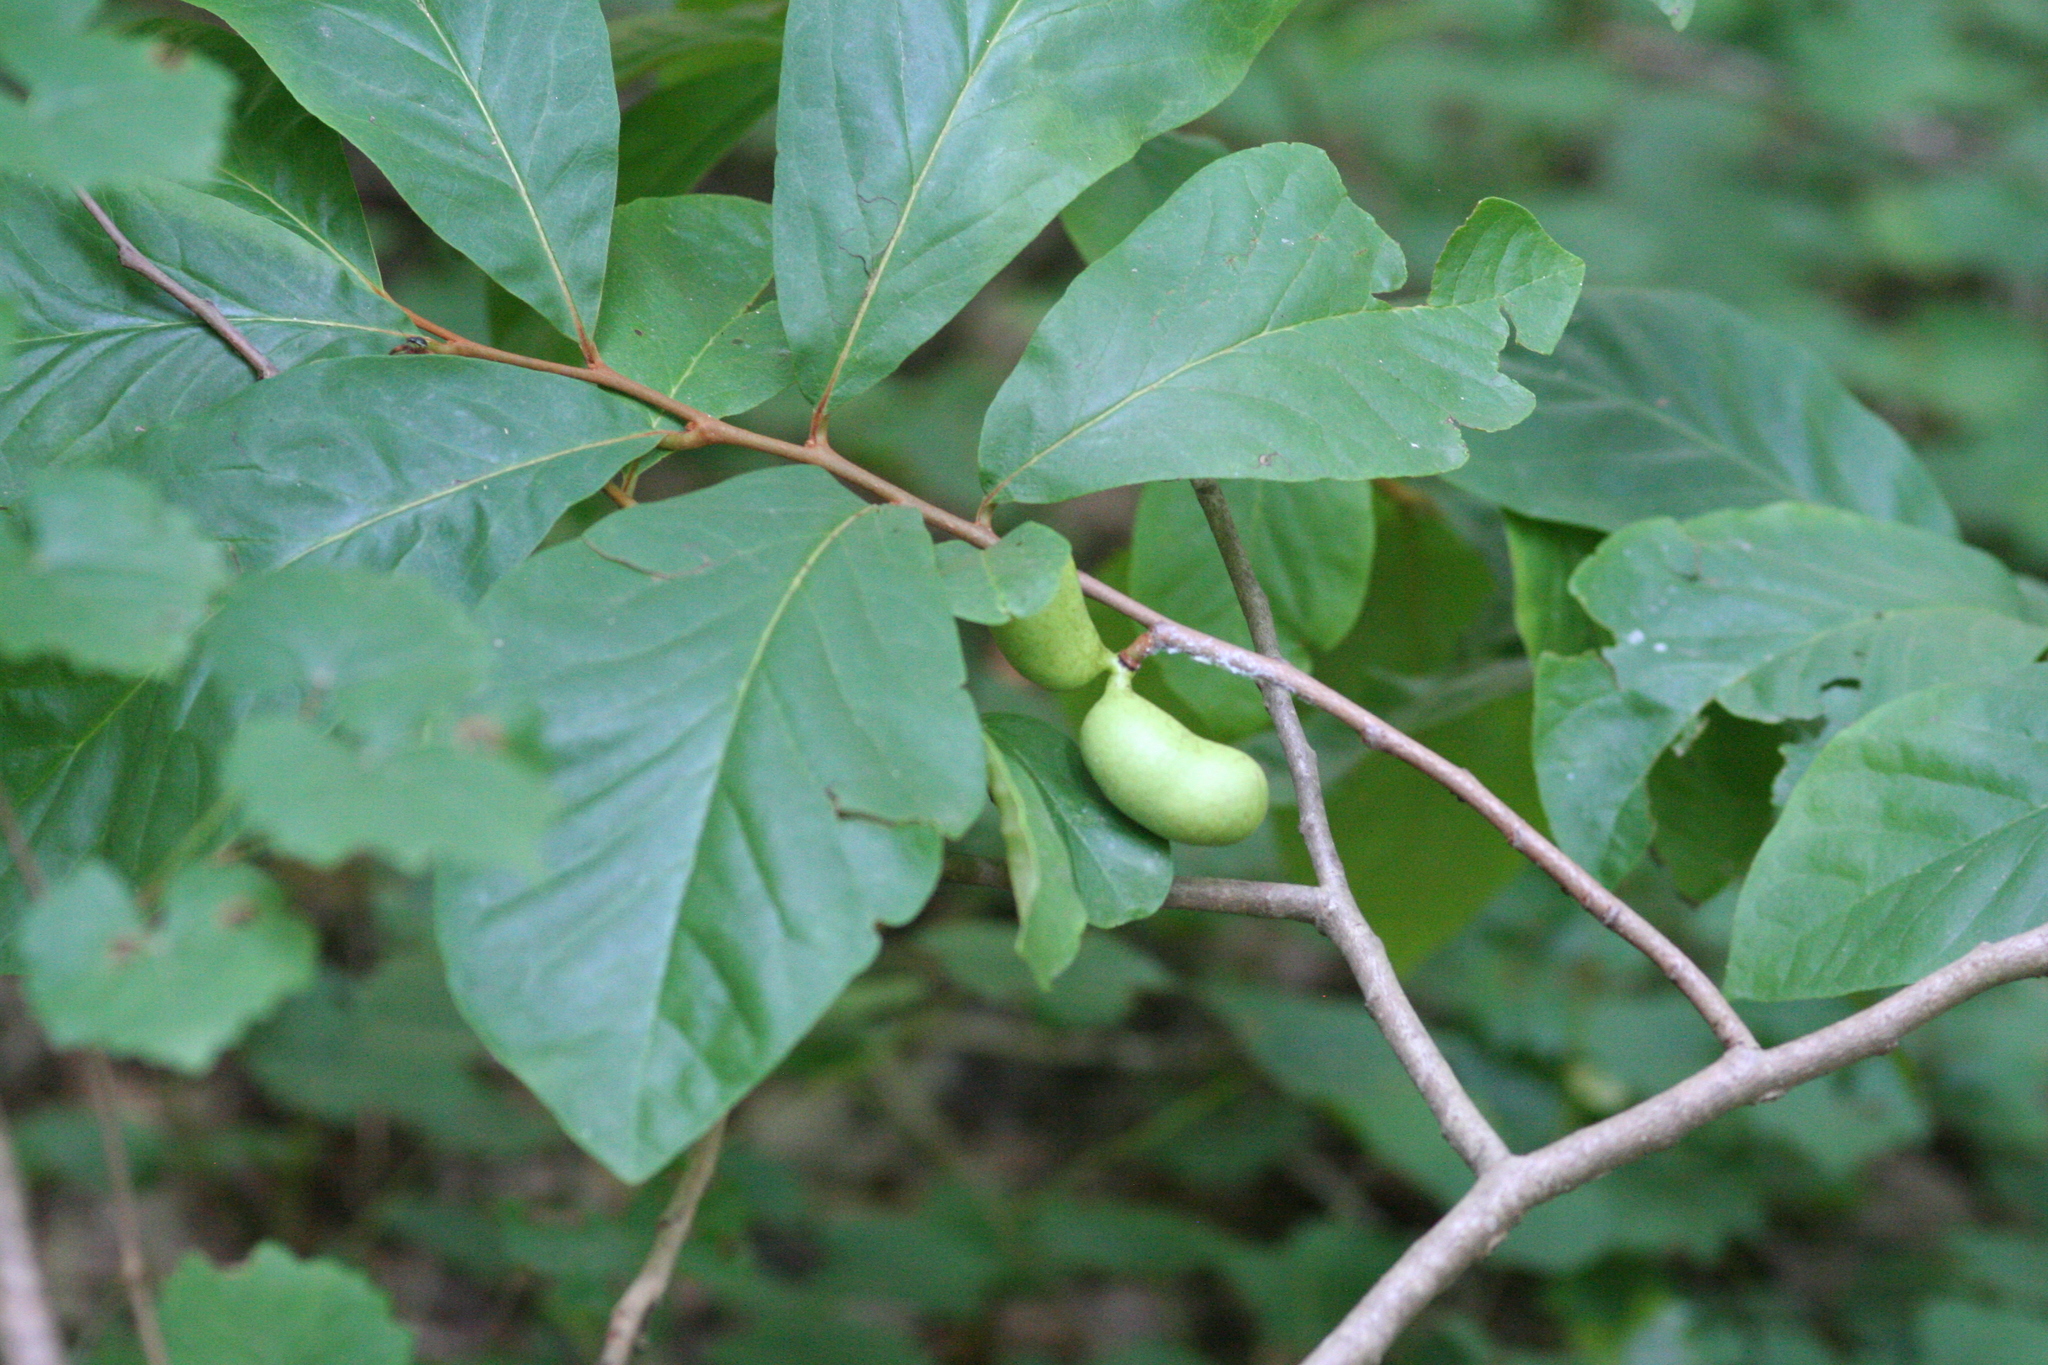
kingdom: Plantae
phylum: Tracheophyta
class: Magnoliopsida
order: Magnoliales
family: Annonaceae
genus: Asimina
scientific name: Asimina parviflora
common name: Dwarf pawpaw
